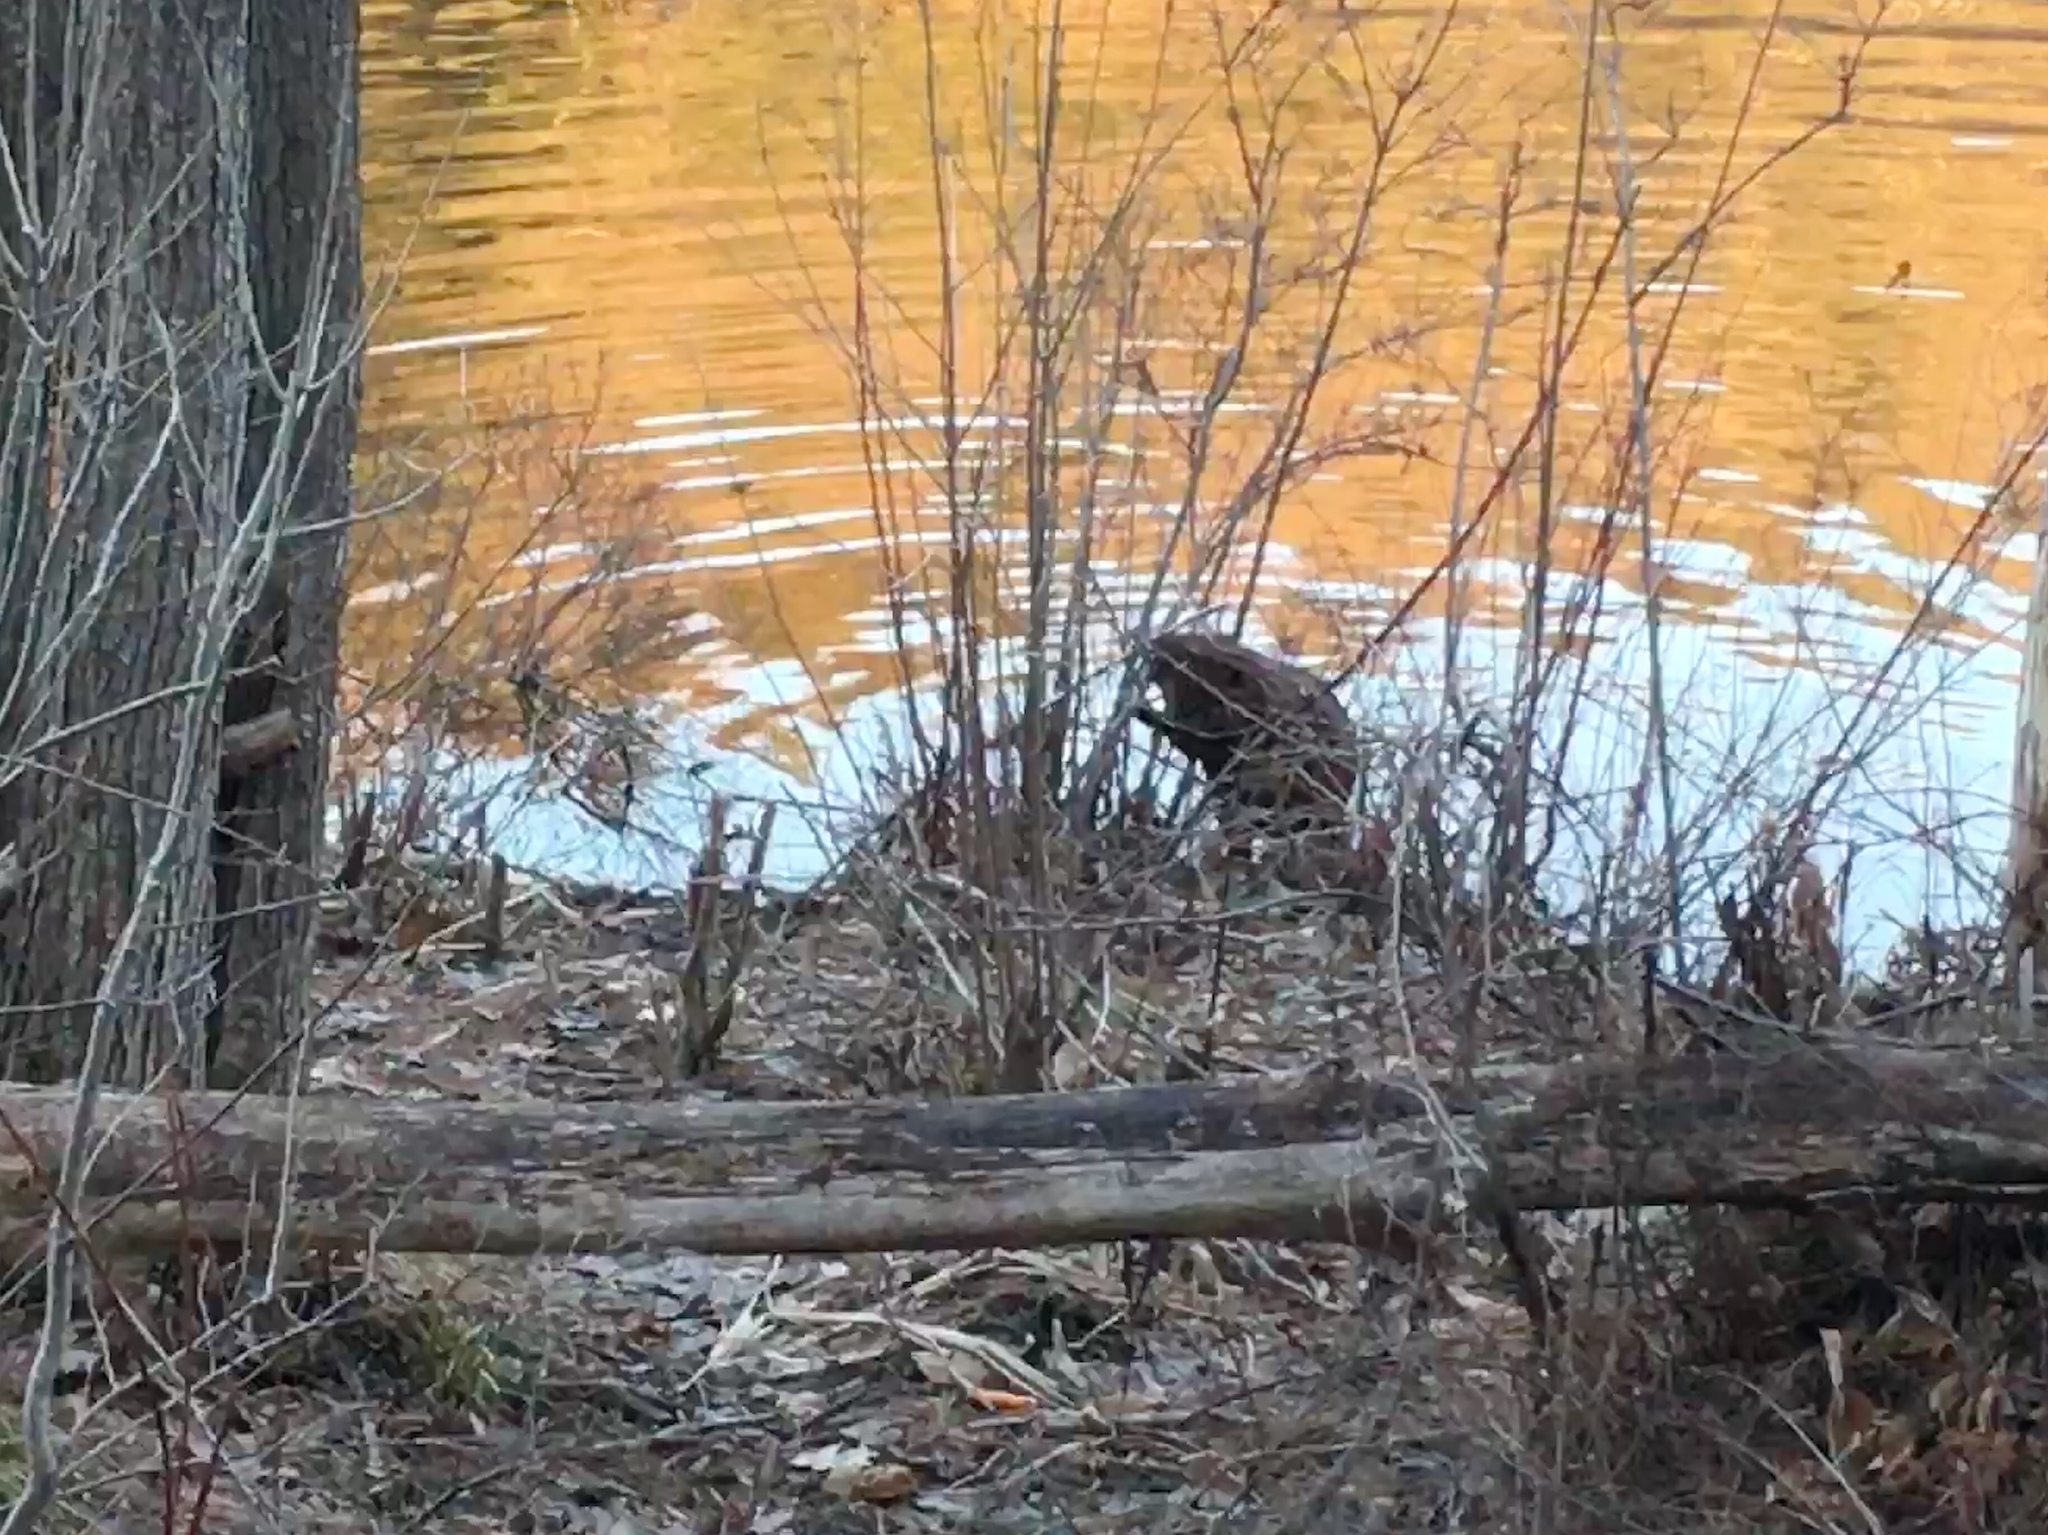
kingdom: Animalia
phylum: Chordata
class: Mammalia
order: Rodentia
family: Castoridae
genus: Castor
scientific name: Castor canadensis
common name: American beaver
